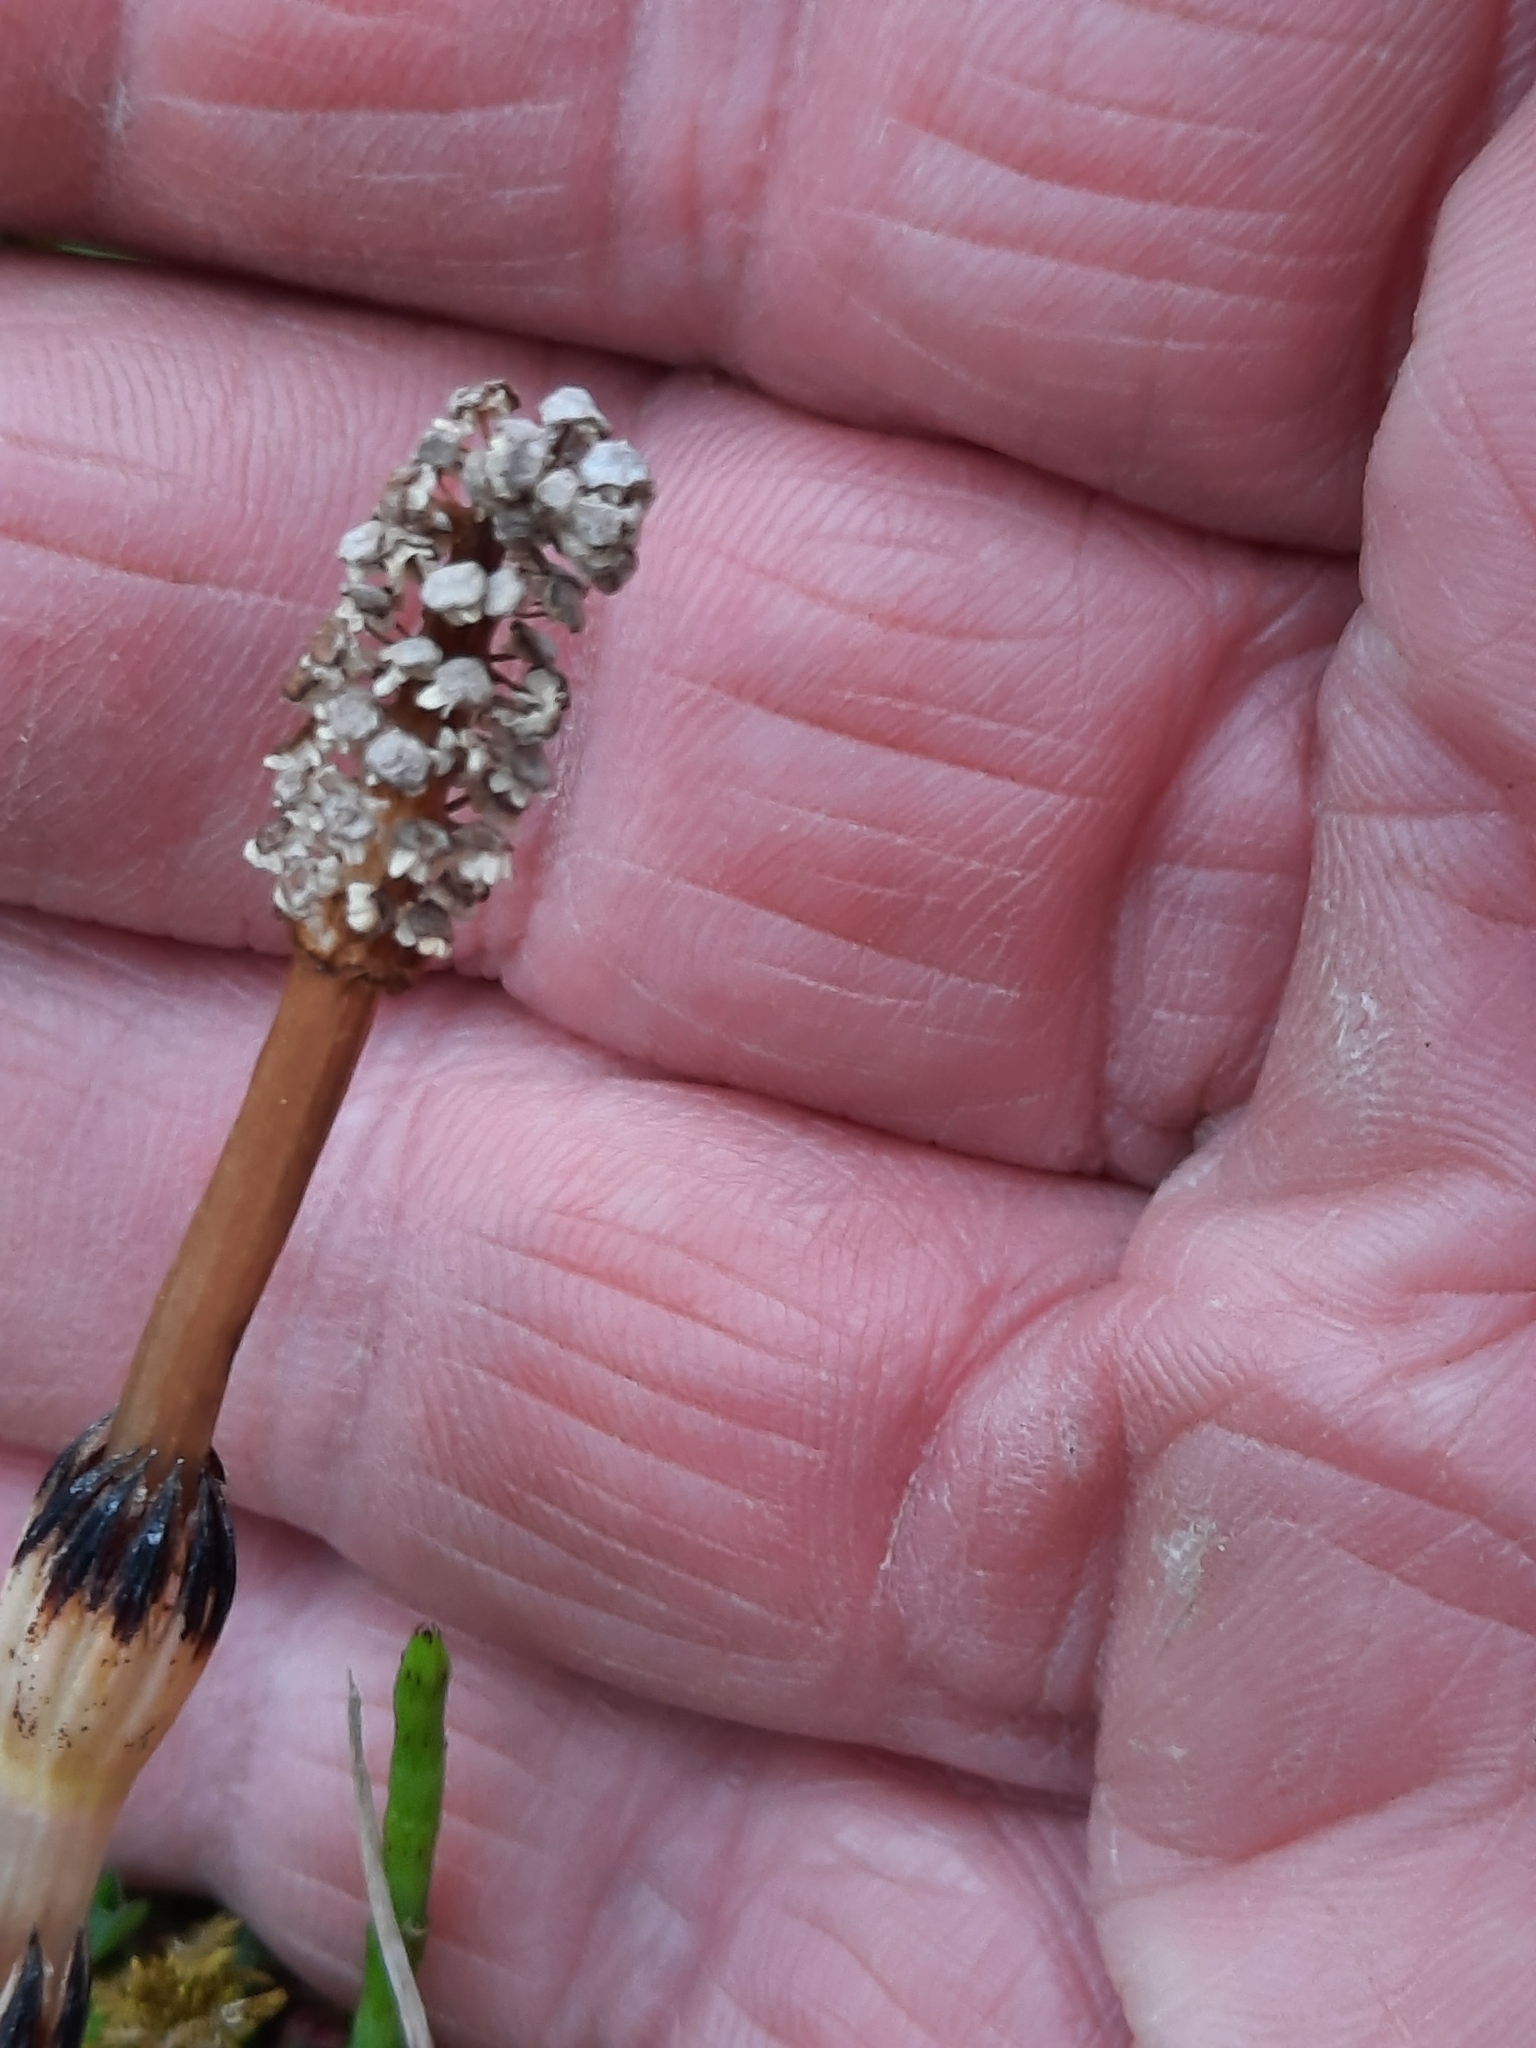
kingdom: Plantae
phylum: Tracheophyta
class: Polypodiopsida
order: Equisetales
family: Equisetaceae
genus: Equisetum
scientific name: Equisetum arvense
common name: Field horsetail
